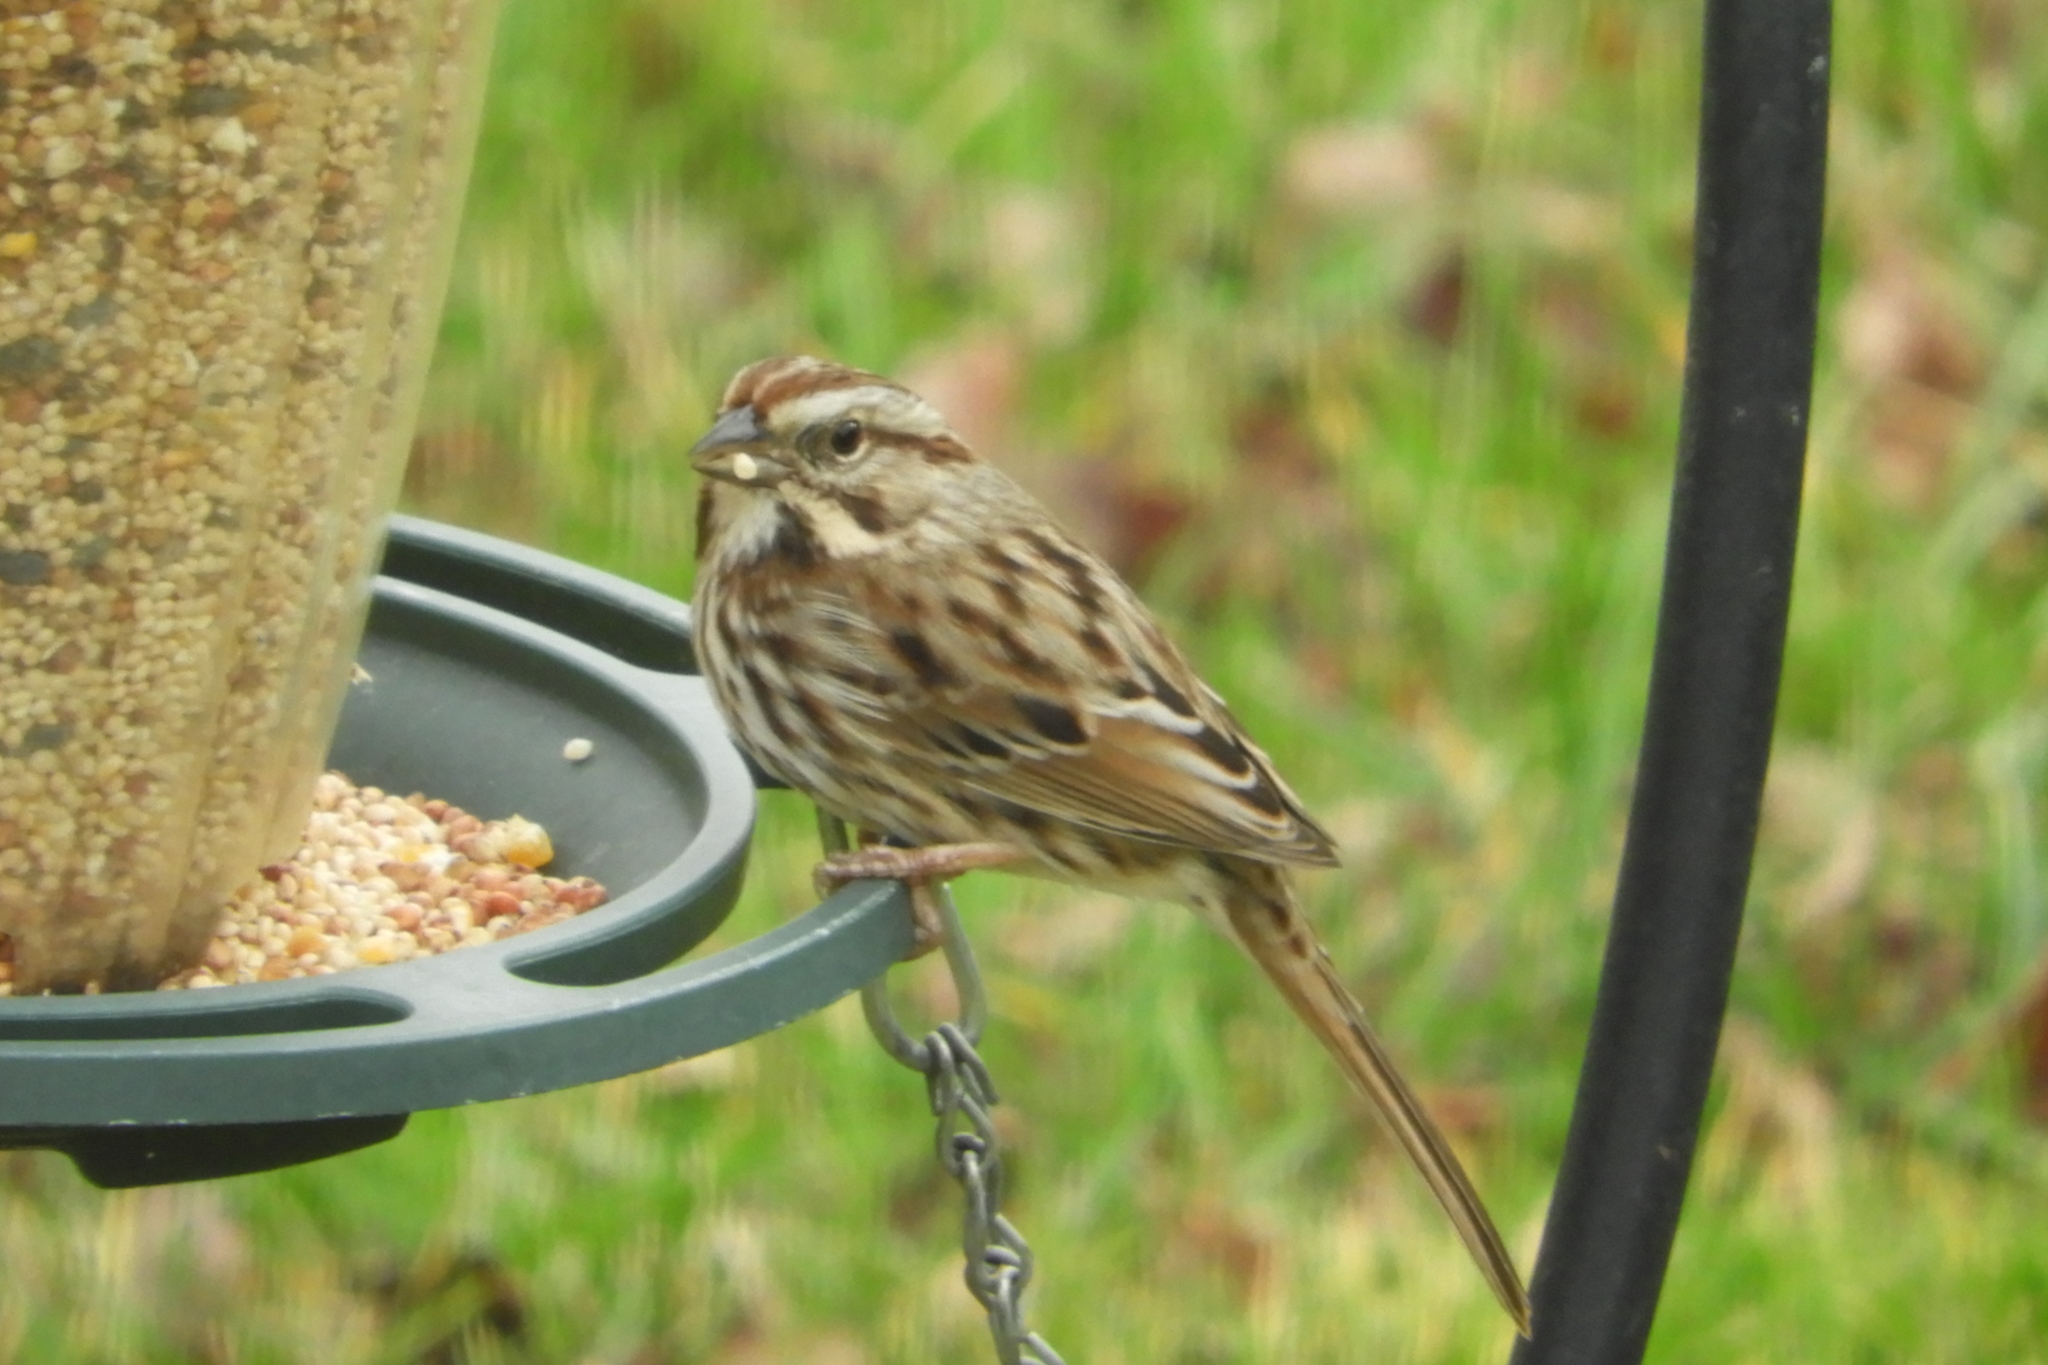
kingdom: Animalia
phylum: Chordata
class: Aves
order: Passeriformes
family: Passerellidae
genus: Melospiza
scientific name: Melospiza melodia
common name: Song sparrow
